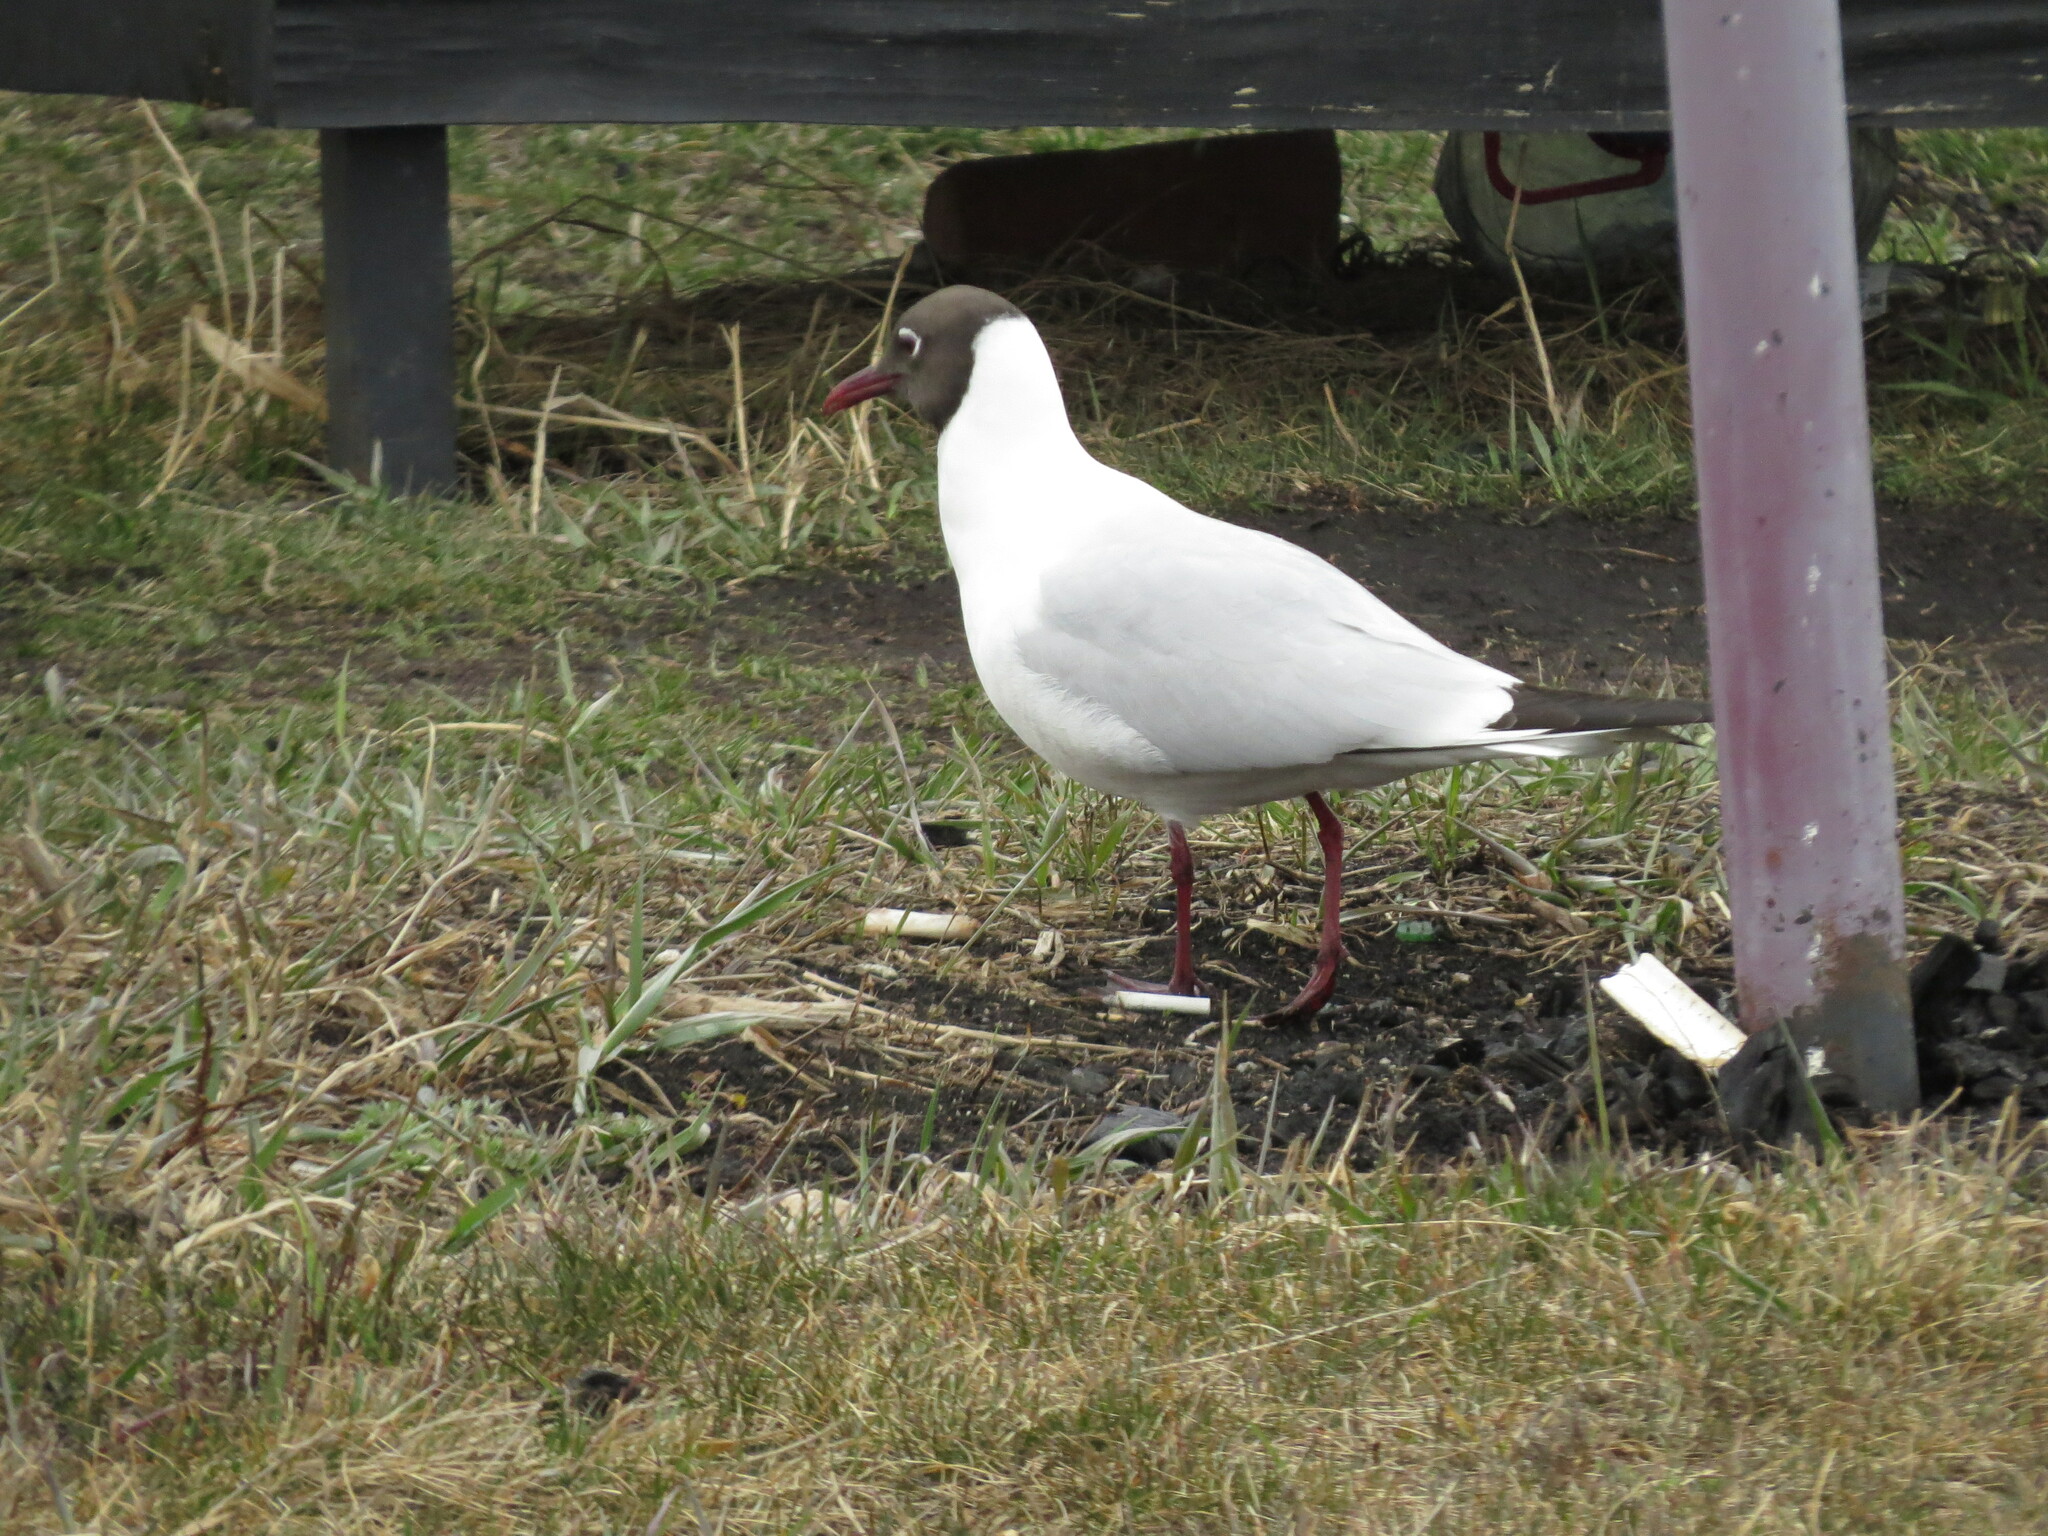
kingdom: Animalia
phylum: Chordata
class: Aves
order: Charadriiformes
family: Laridae
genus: Chroicocephalus
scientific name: Chroicocephalus ridibundus
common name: Black-headed gull
